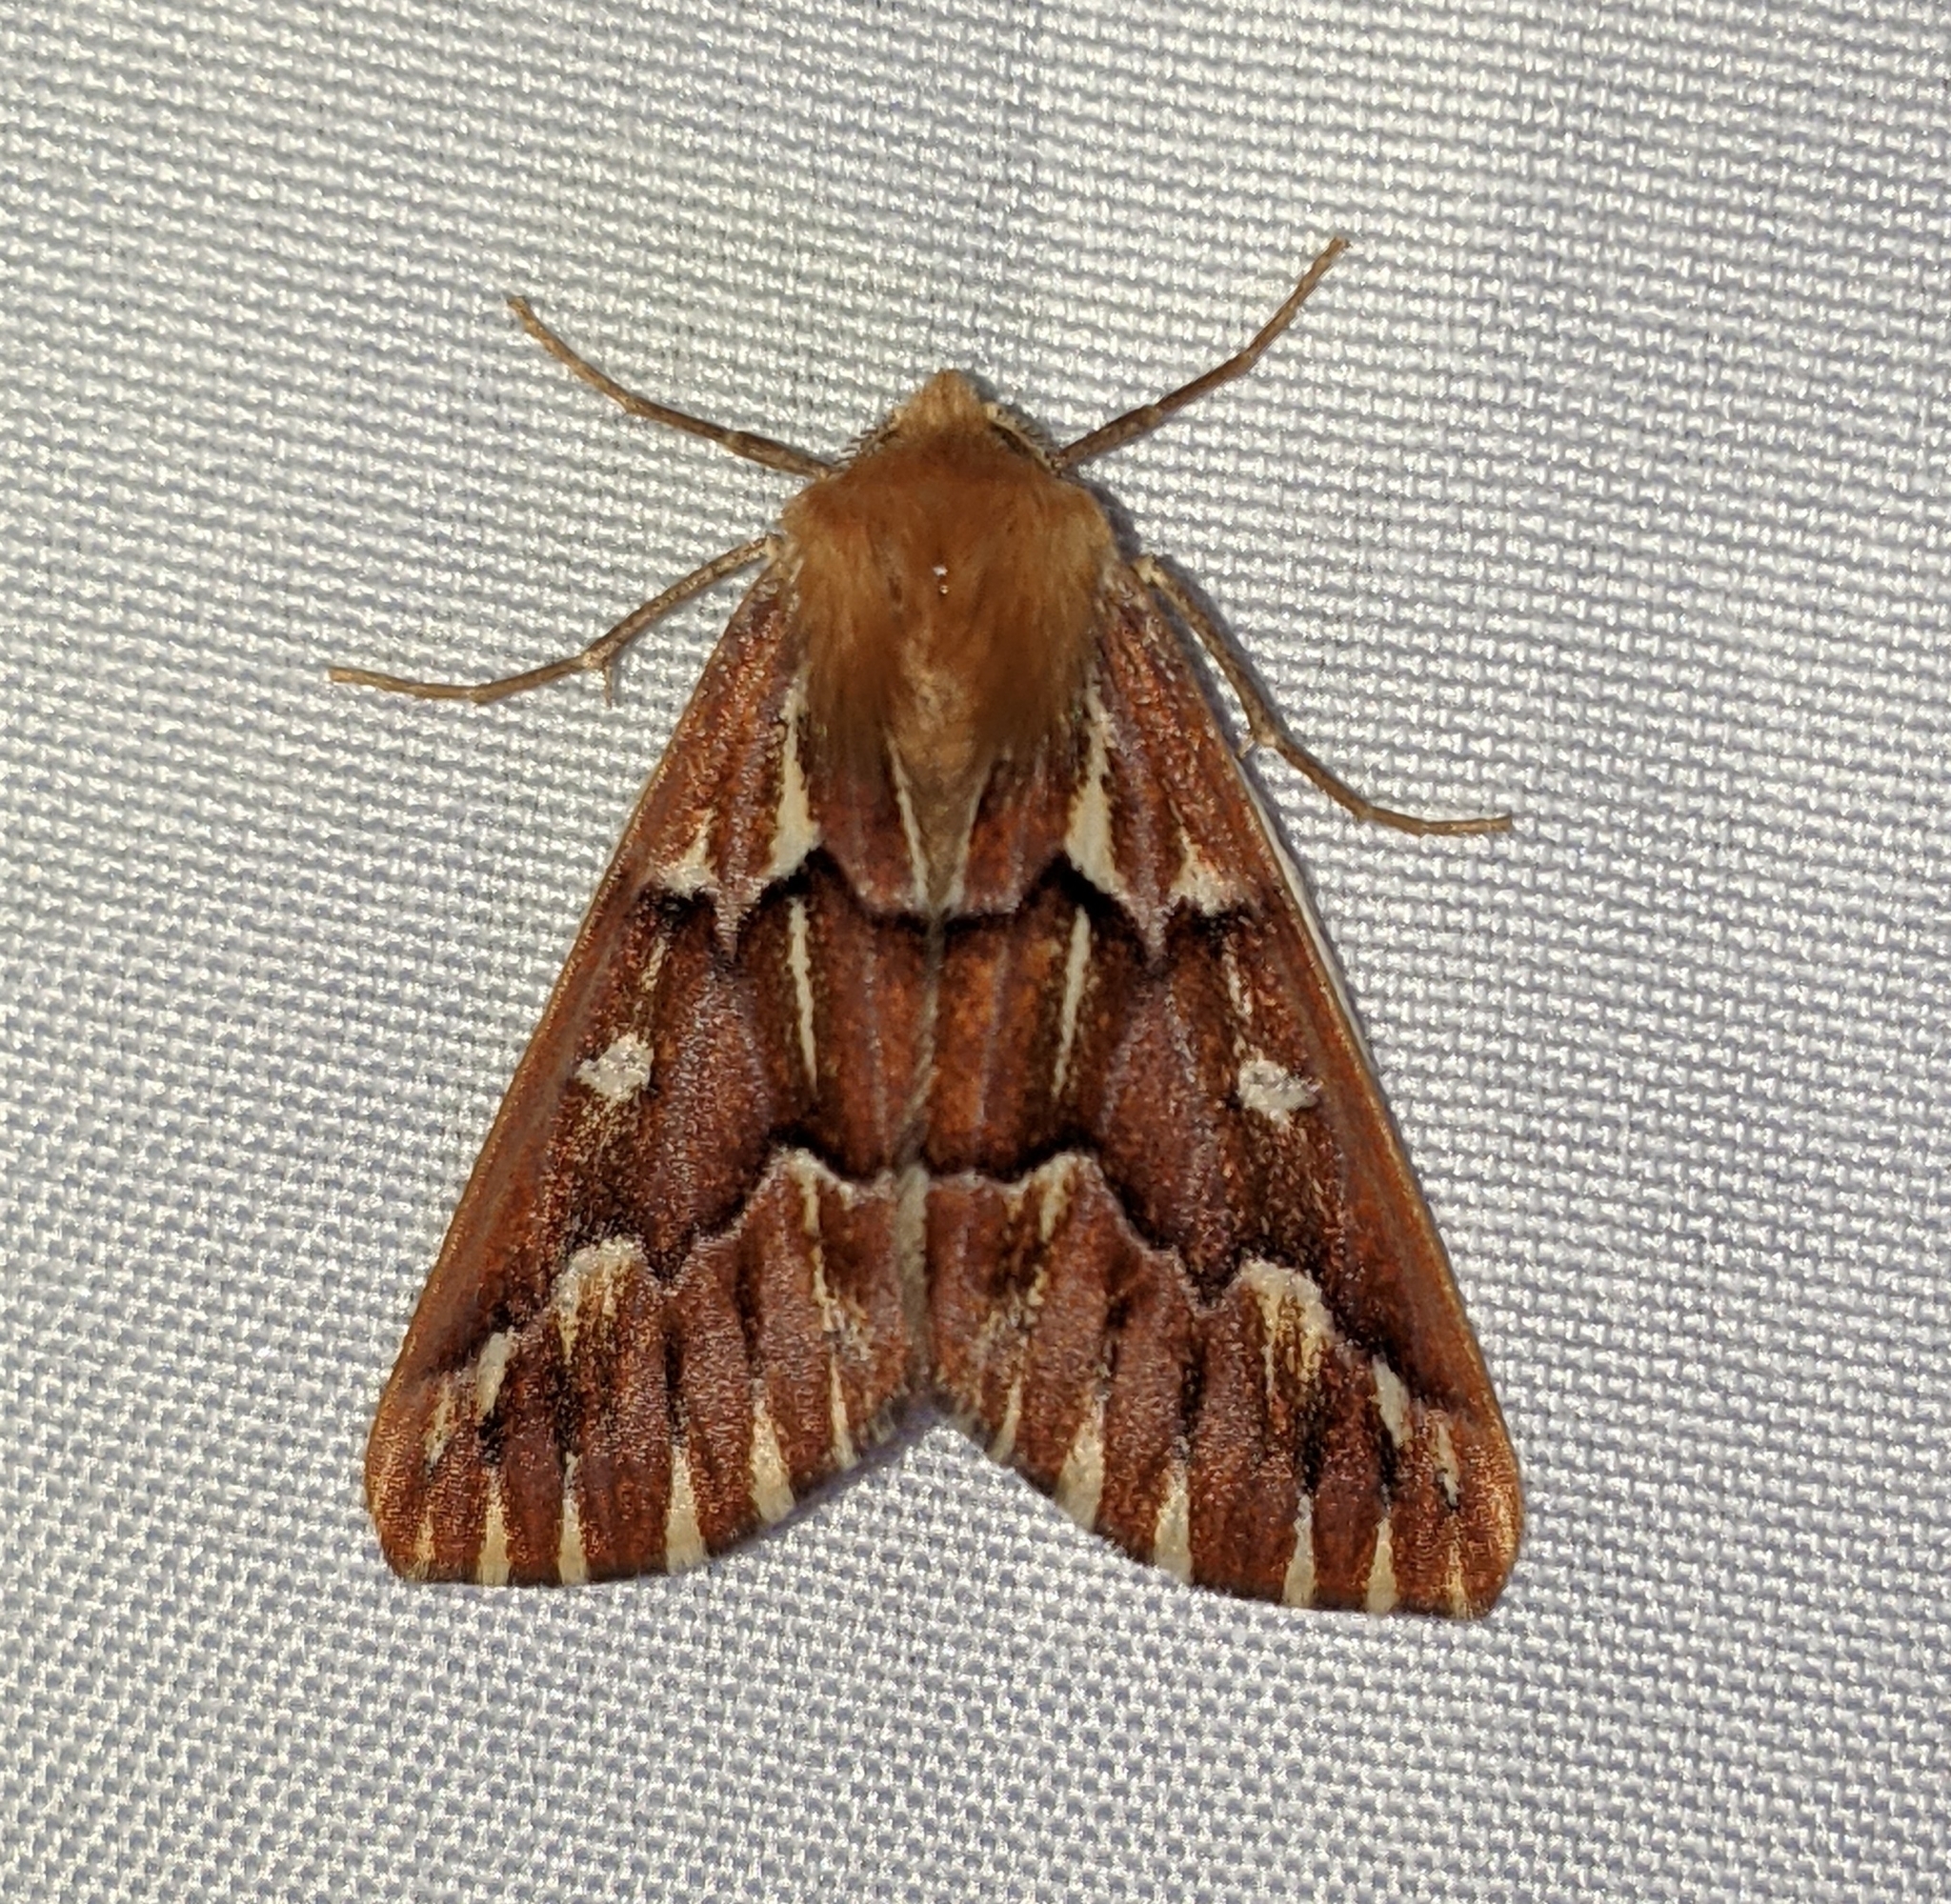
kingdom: Animalia
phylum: Arthropoda
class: Insecta
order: Lepidoptera
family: Geometridae
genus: Caripeta
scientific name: Caripeta aequaliaria
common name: Red girdle moth
